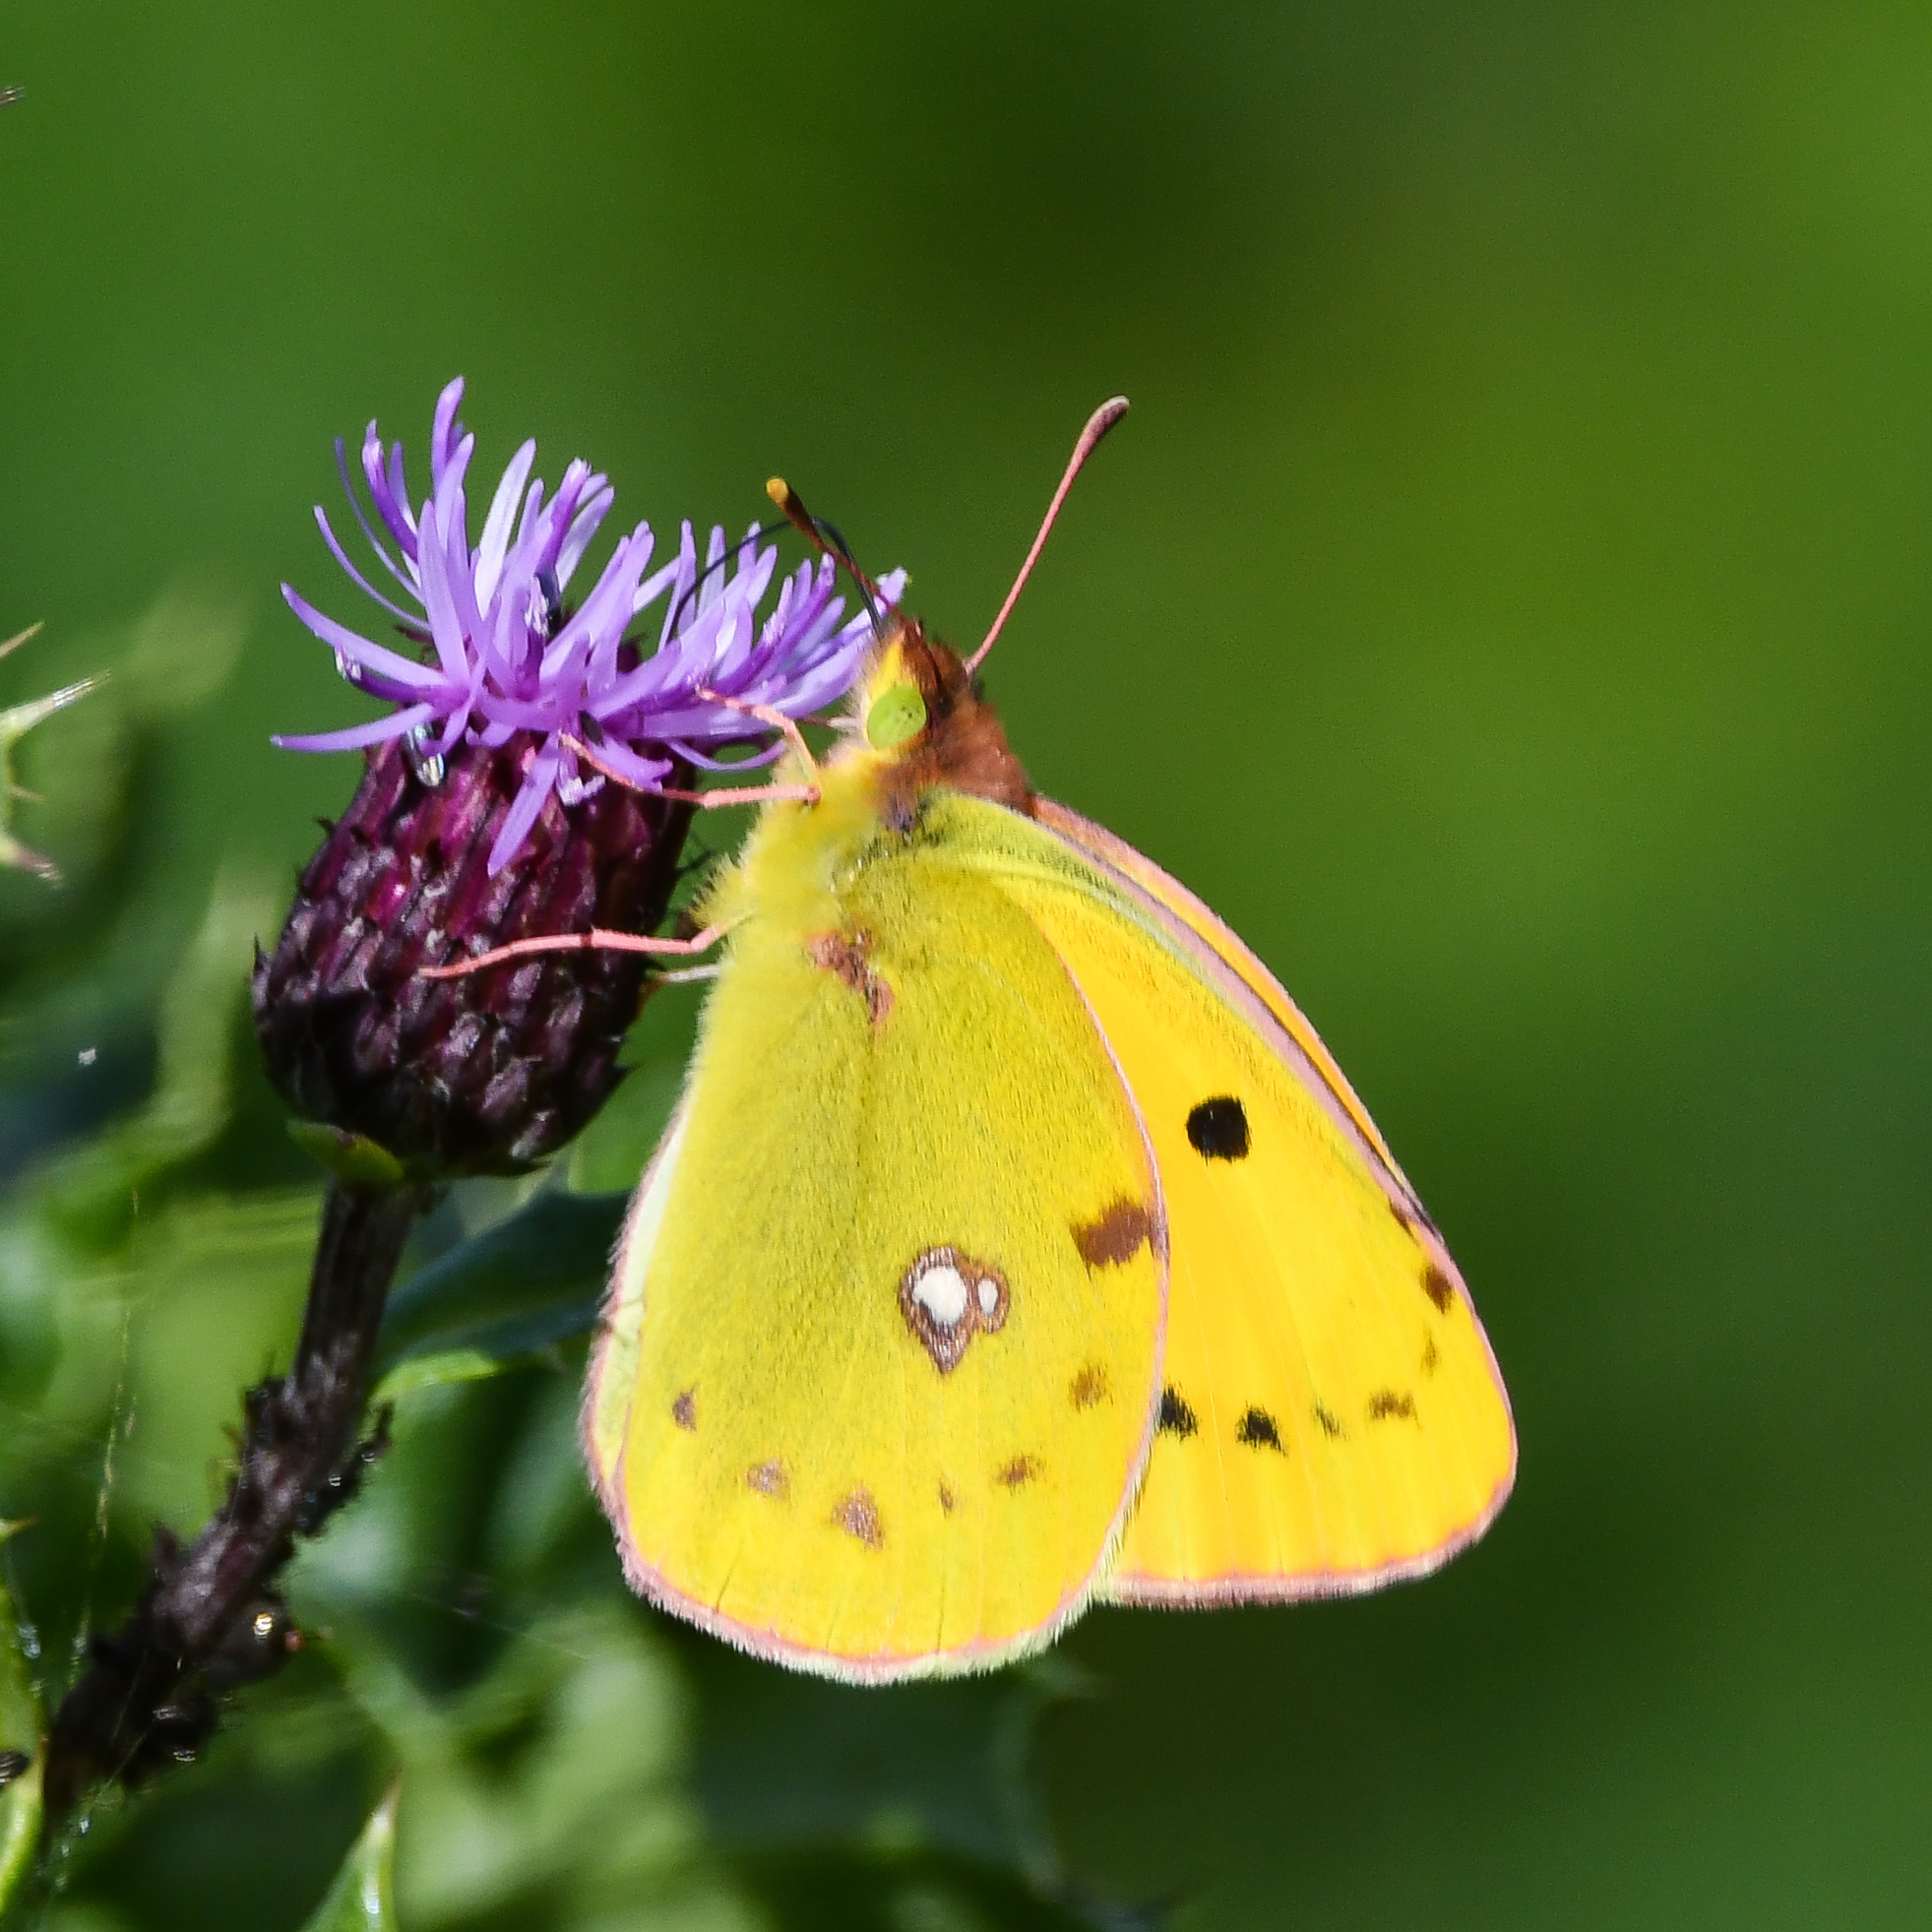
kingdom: Animalia
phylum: Arthropoda
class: Insecta
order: Lepidoptera
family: Pieridae
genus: Colias
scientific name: Colias croceus
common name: Clouded yellow
